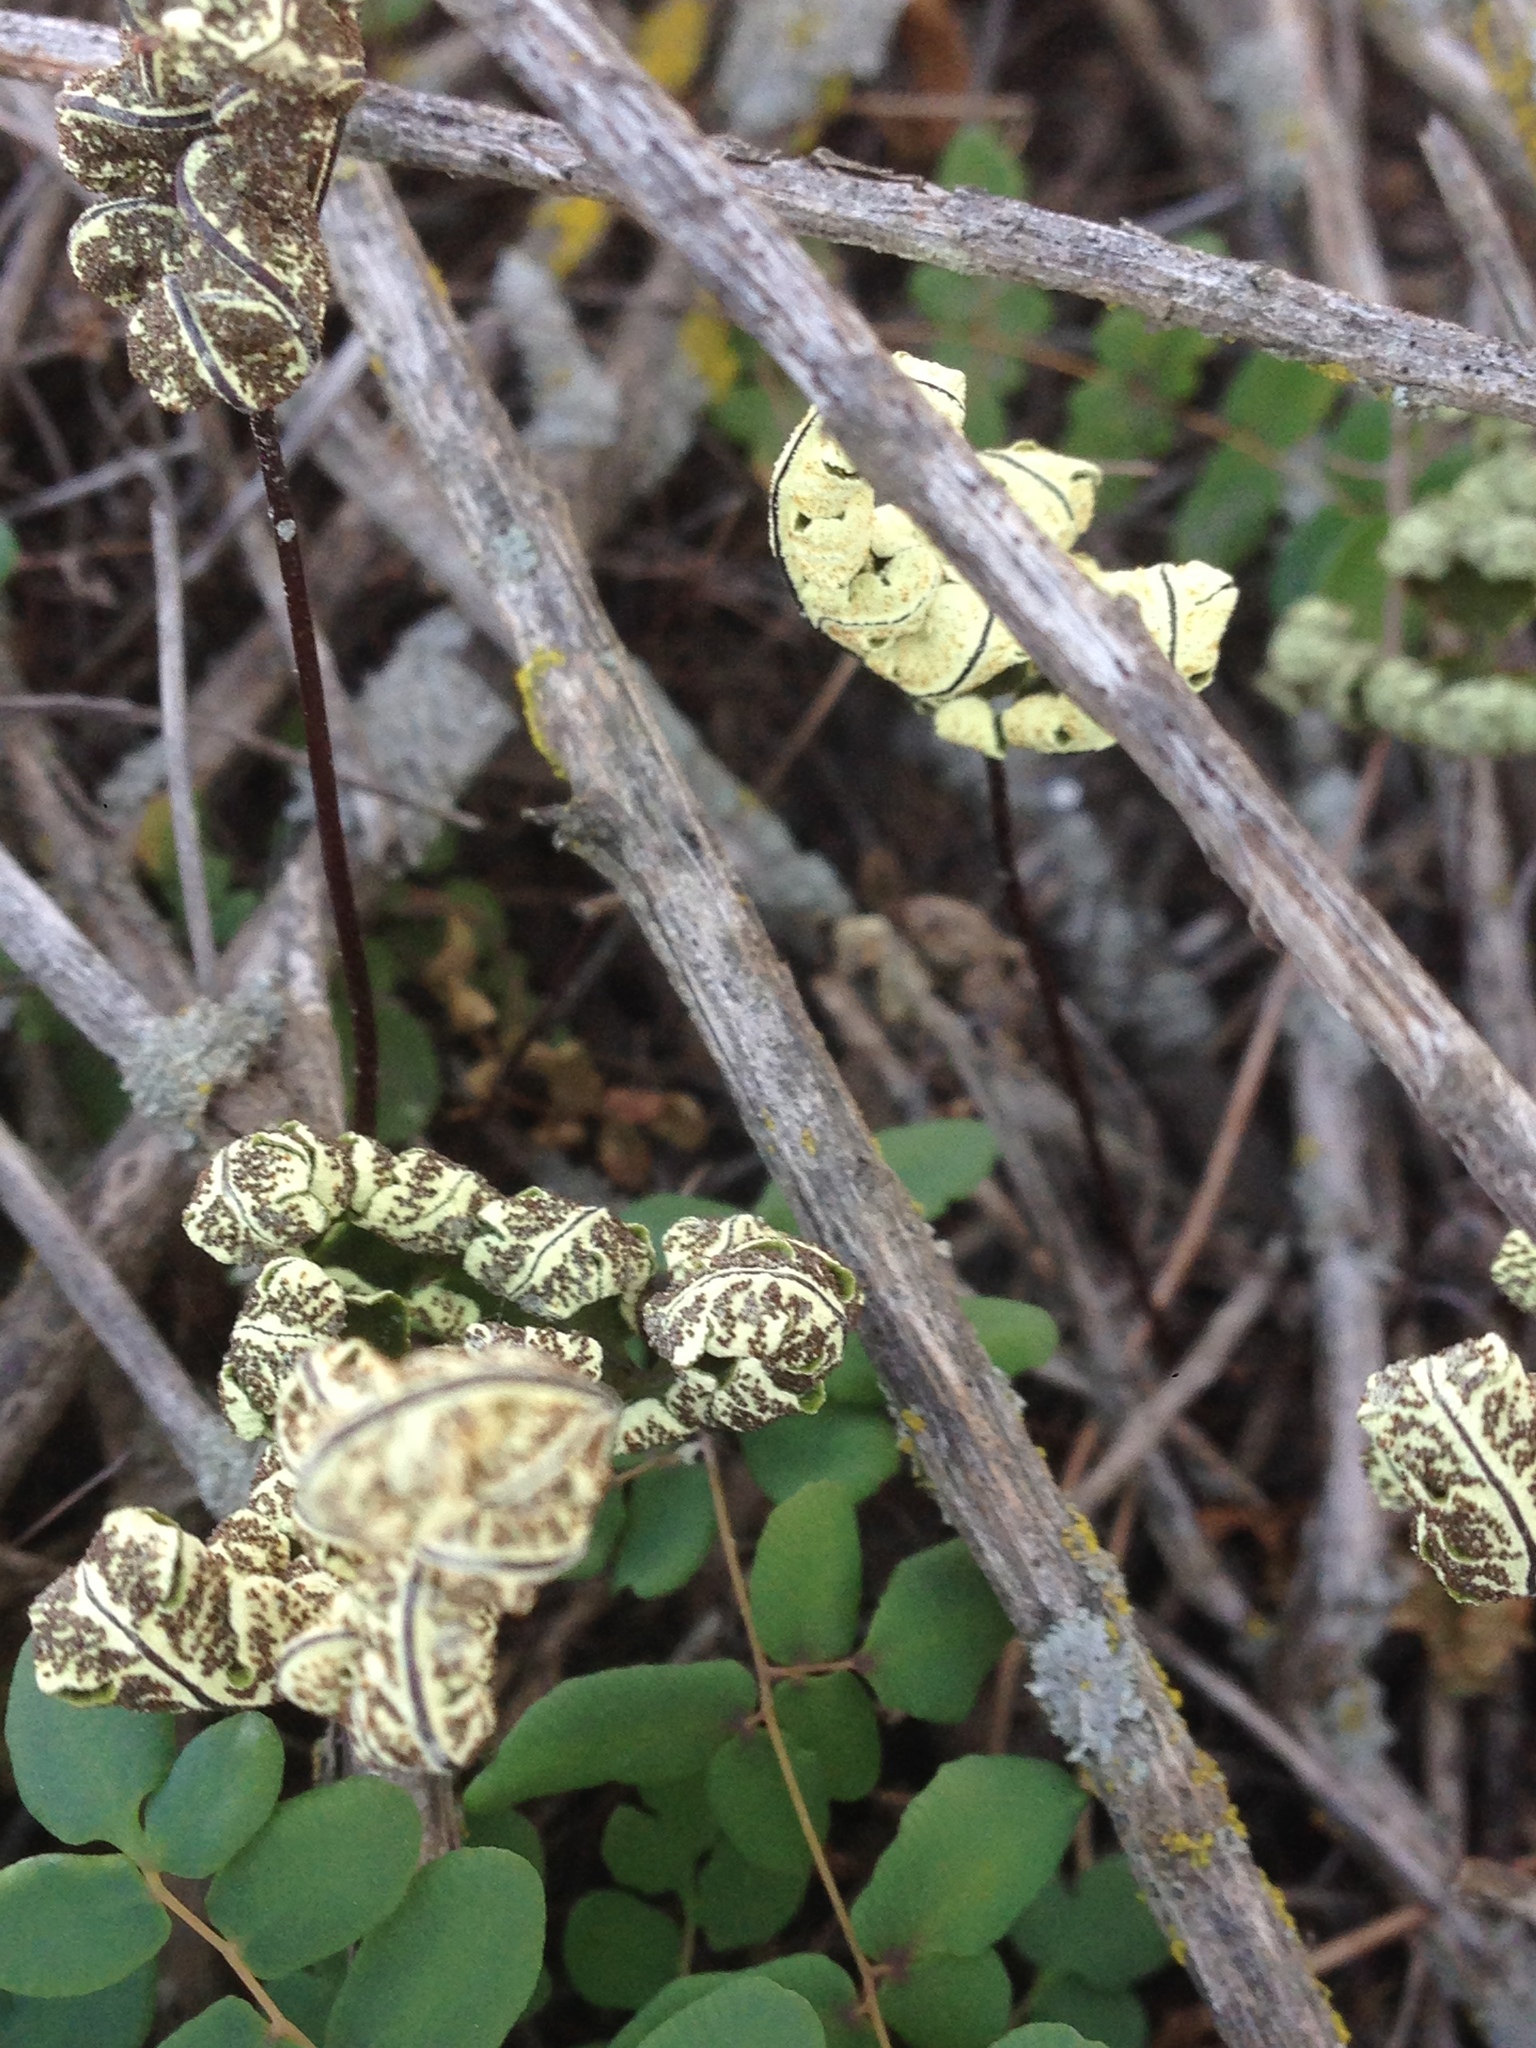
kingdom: Plantae
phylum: Tracheophyta
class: Polypodiopsida
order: Polypodiales
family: Pteridaceae
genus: Pentagramma
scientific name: Pentagramma triangularis
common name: Gold fern
